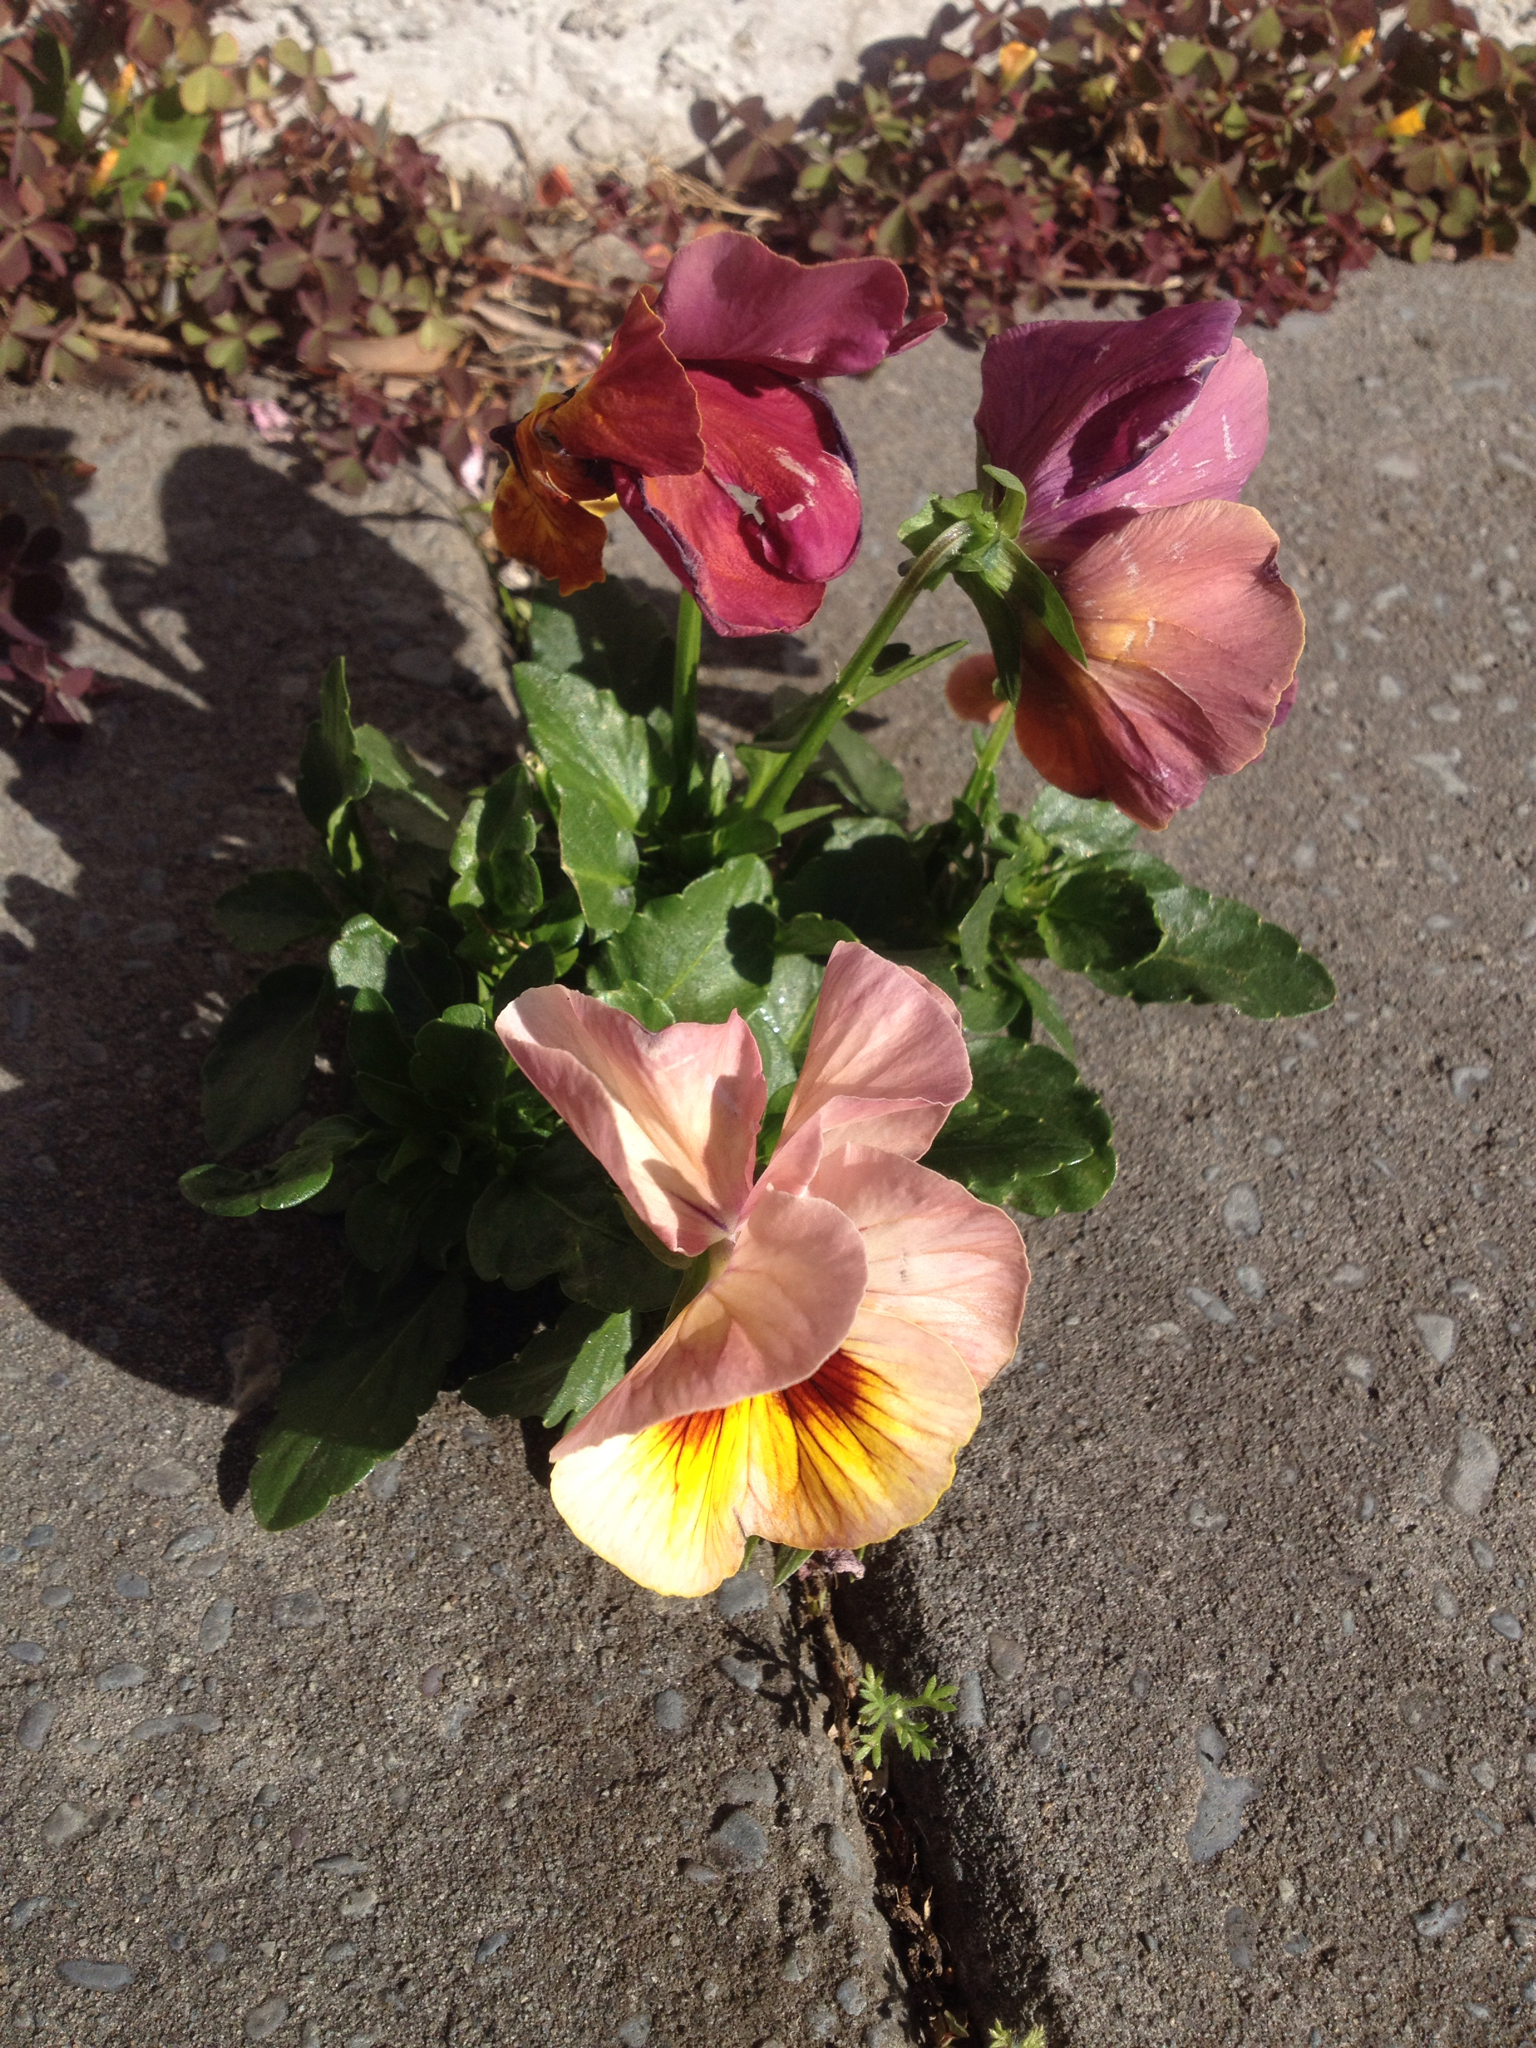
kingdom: Plantae
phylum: Tracheophyta
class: Magnoliopsida
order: Malpighiales
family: Violaceae
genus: Viola
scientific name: Viola wittrockiana
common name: Garden pansy
